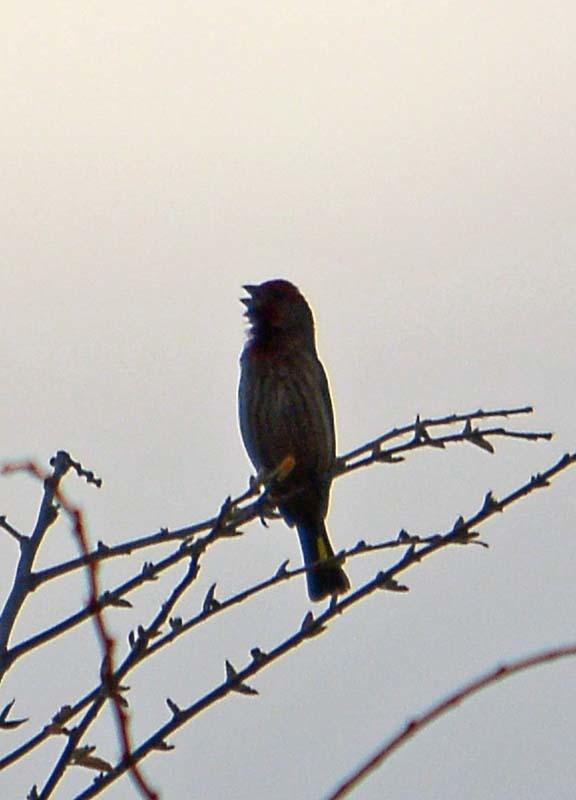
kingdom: Animalia
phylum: Chordata
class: Aves
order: Passeriformes
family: Fringillidae
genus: Haemorhous
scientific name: Haemorhous mexicanus
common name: House finch
